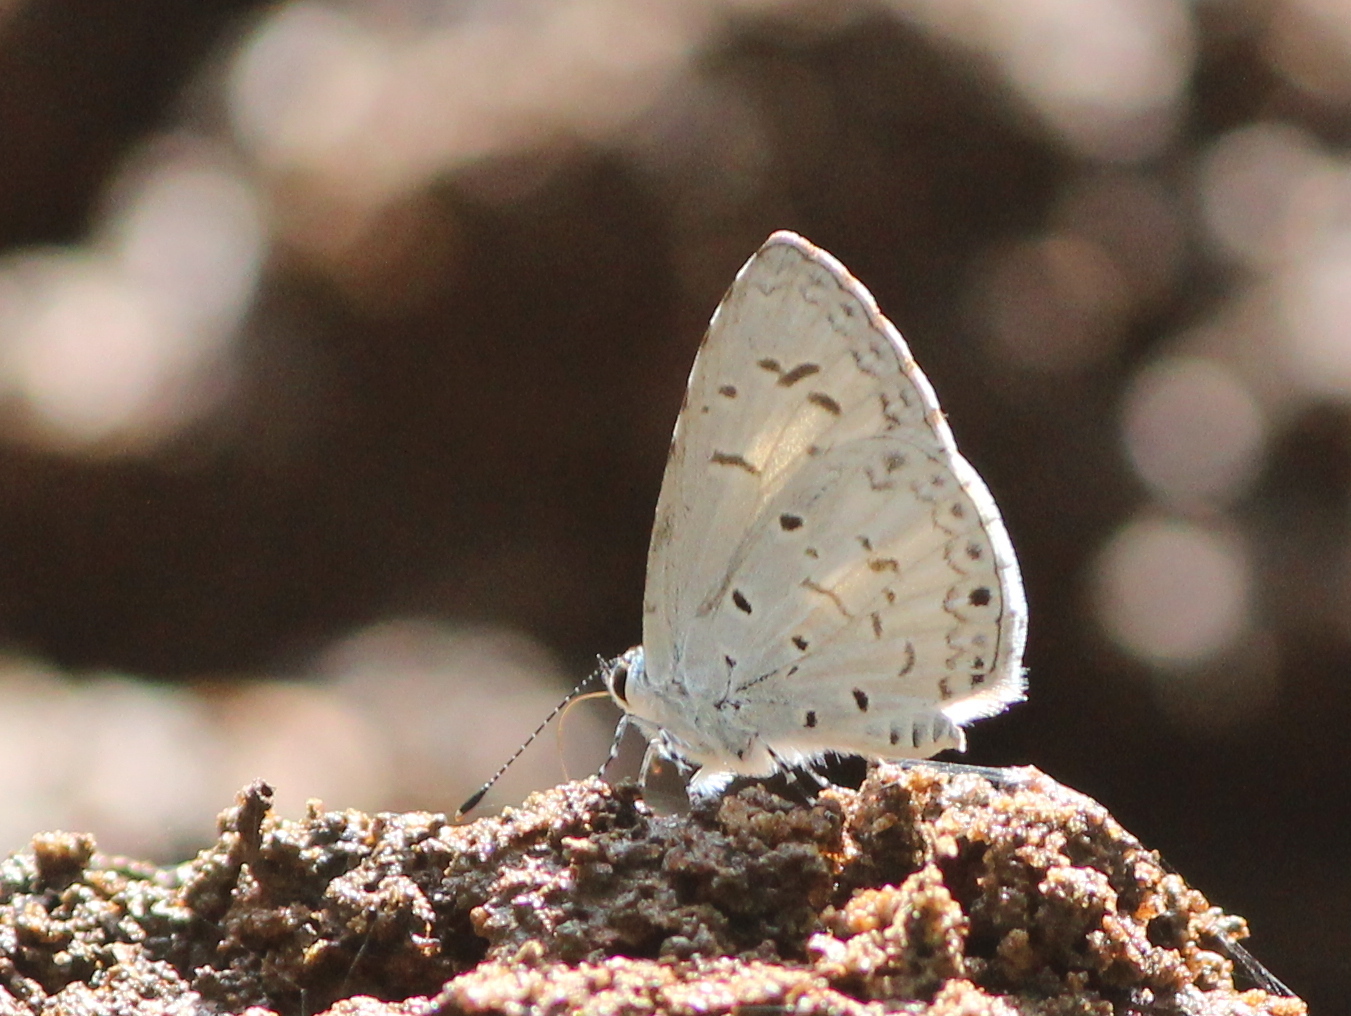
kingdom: Animalia
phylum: Arthropoda
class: Insecta
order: Lepidoptera
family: Lycaenidae
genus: Acytolepis
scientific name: Acytolepis puspa
